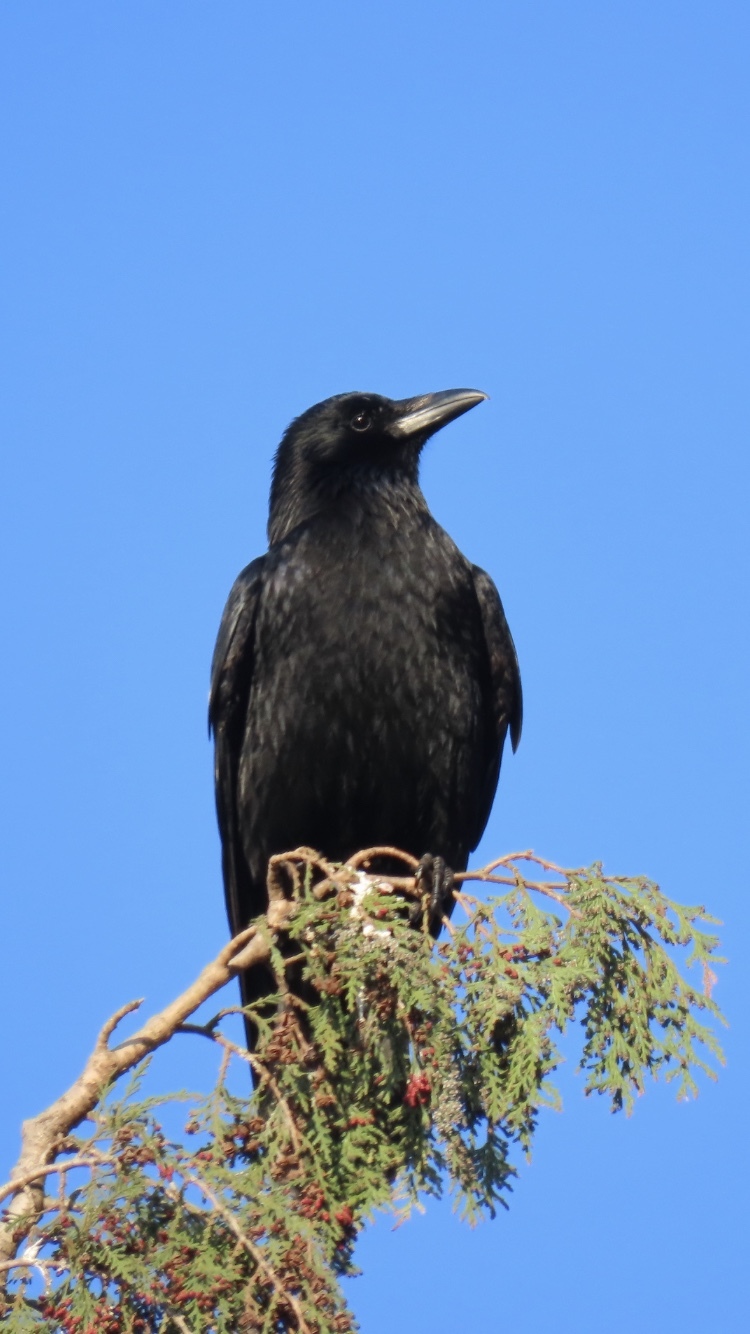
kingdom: Animalia
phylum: Chordata
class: Aves
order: Passeriformes
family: Corvidae
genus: Corvus
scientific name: Corvus corone
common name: Carrion crow
